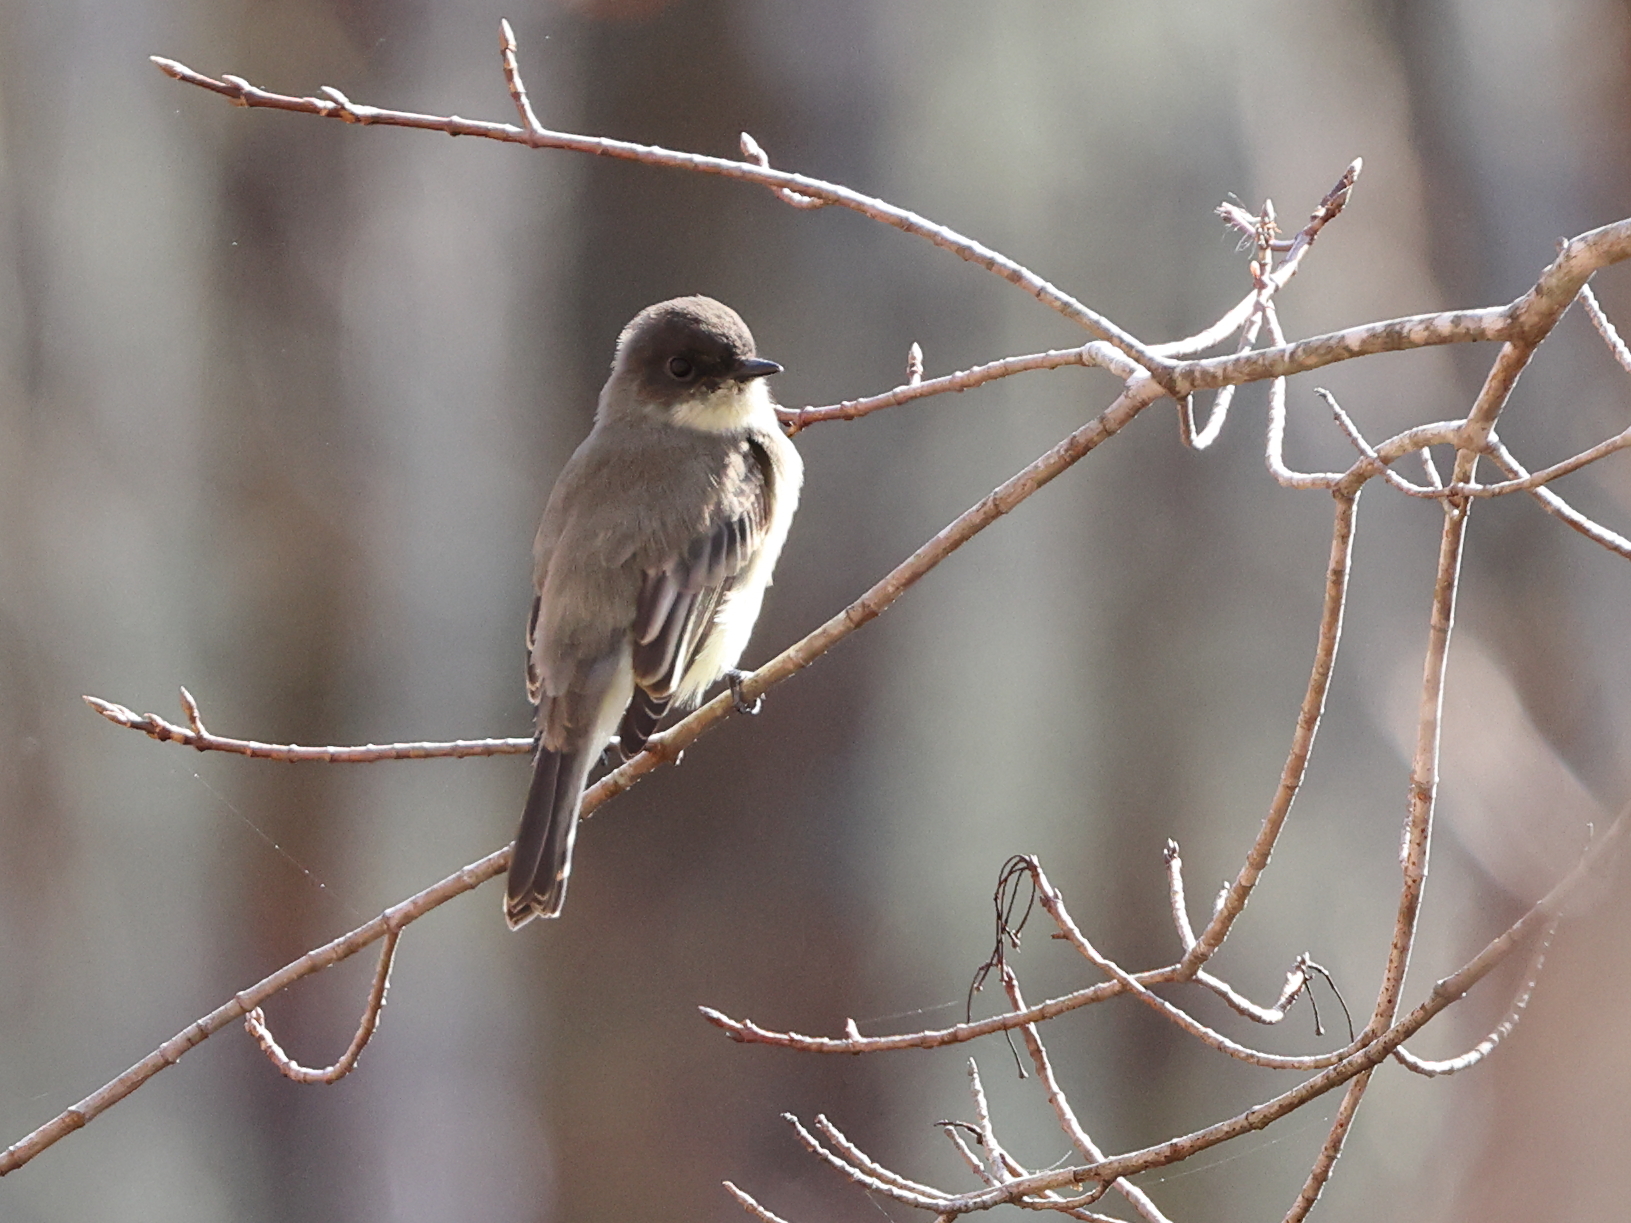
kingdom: Animalia
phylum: Chordata
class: Aves
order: Passeriformes
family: Tyrannidae
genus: Sayornis
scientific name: Sayornis phoebe
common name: Eastern phoebe
